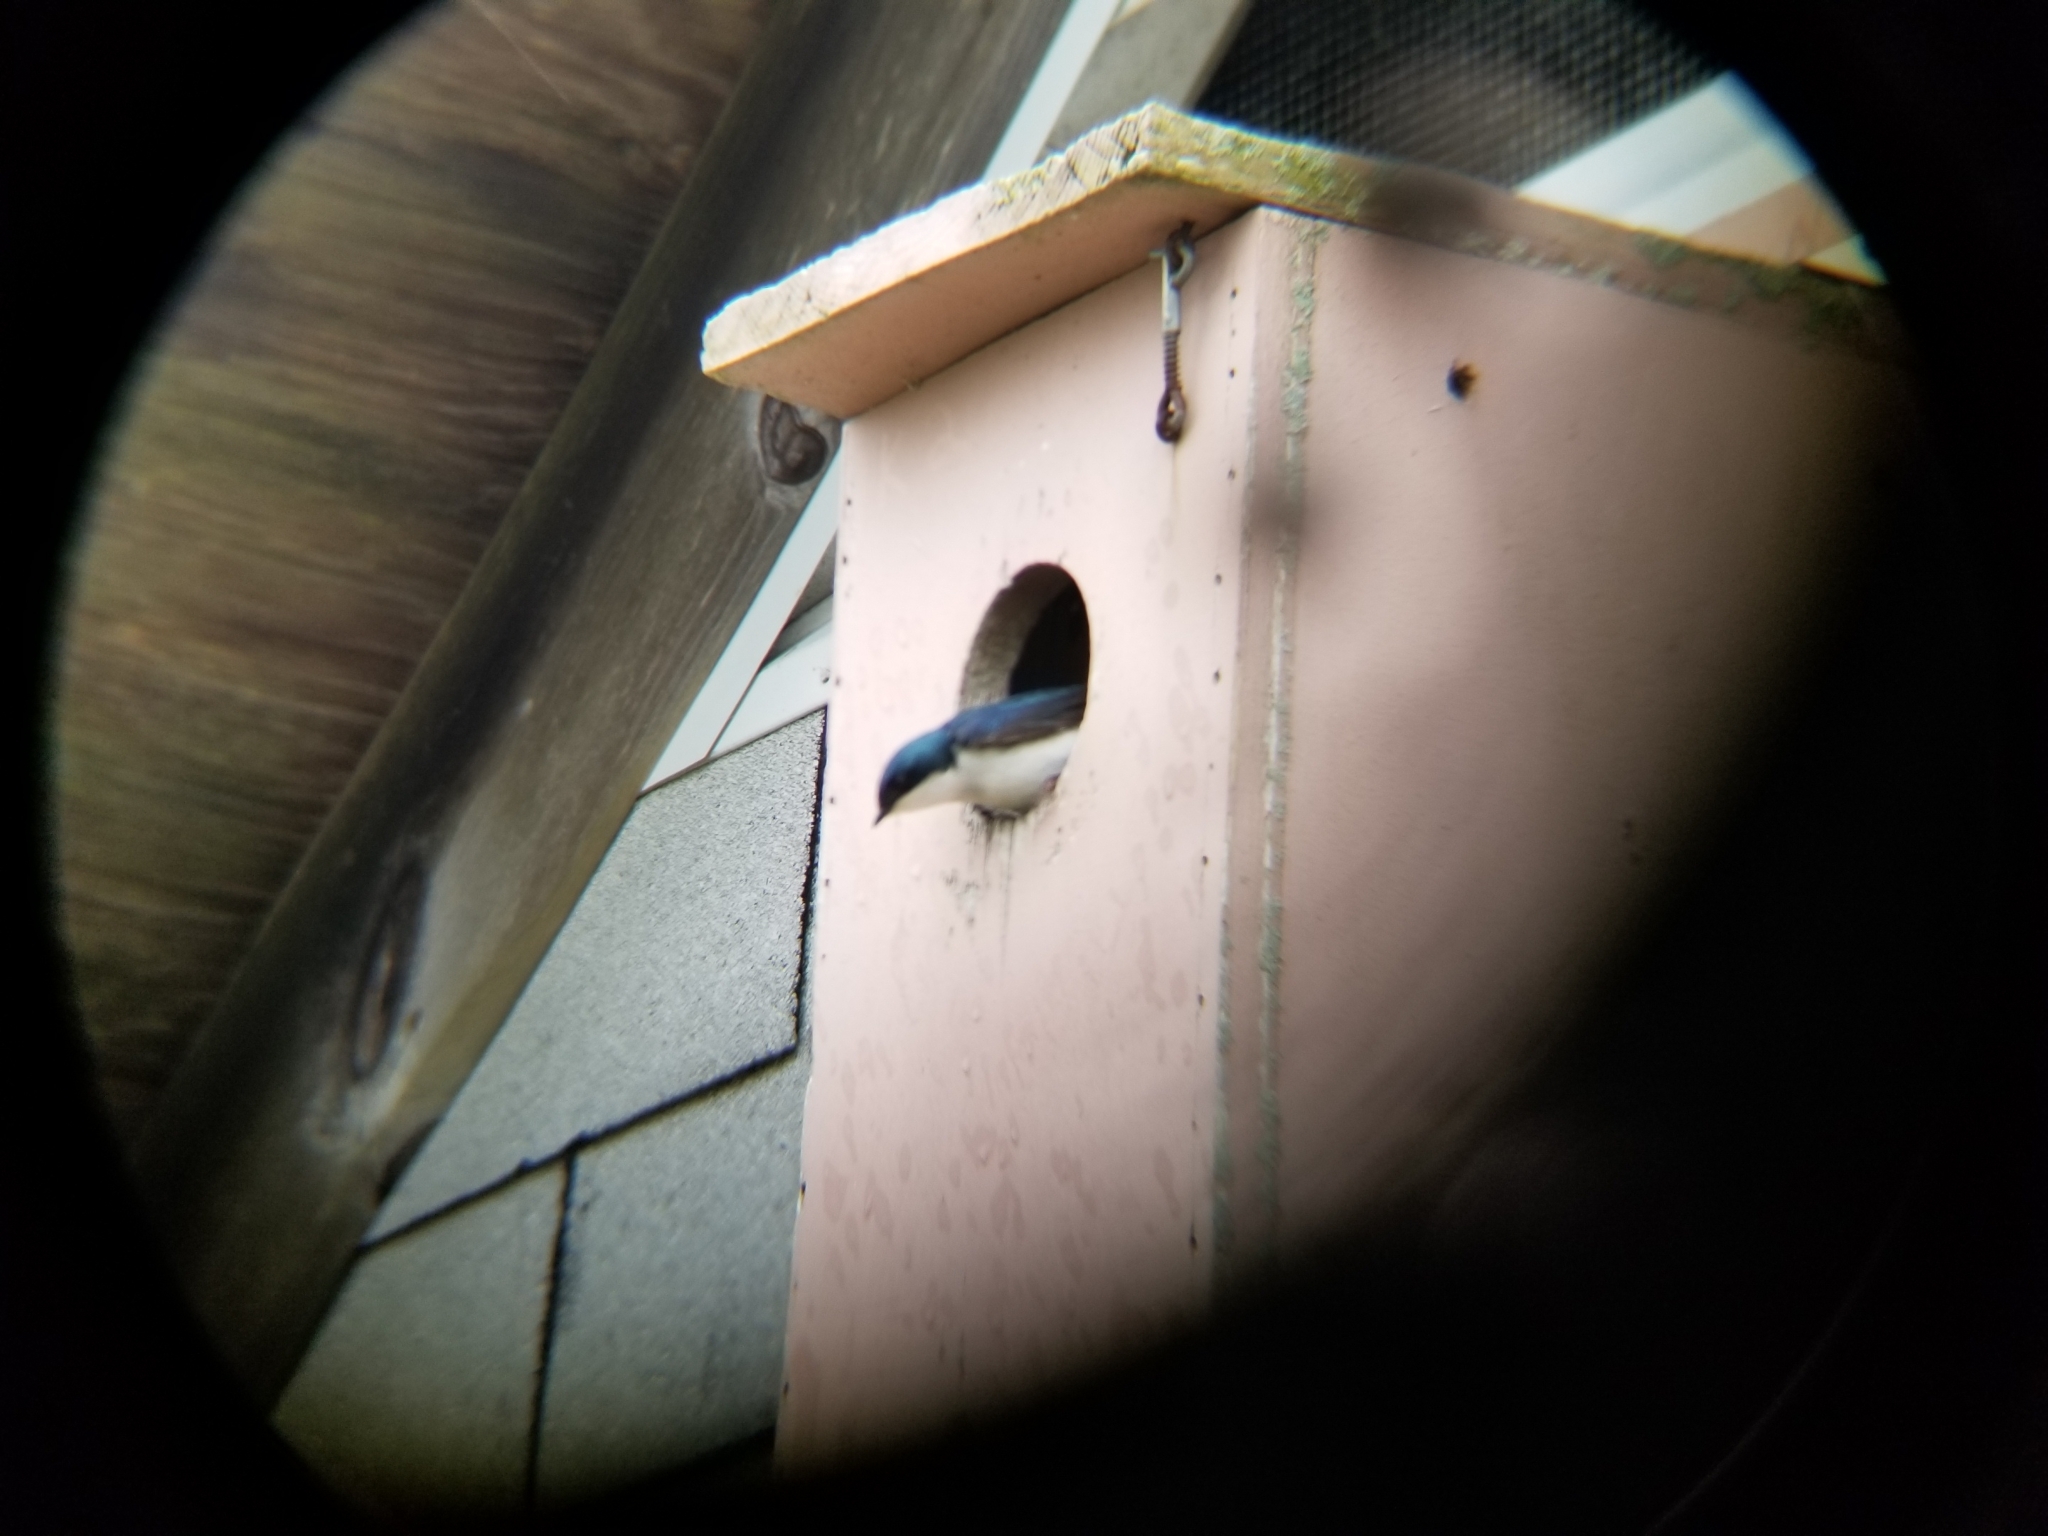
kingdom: Animalia
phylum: Chordata
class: Aves
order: Passeriformes
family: Hirundinidae
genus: Tachycineta
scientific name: Tachycineta bicolor
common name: Tree swallow
